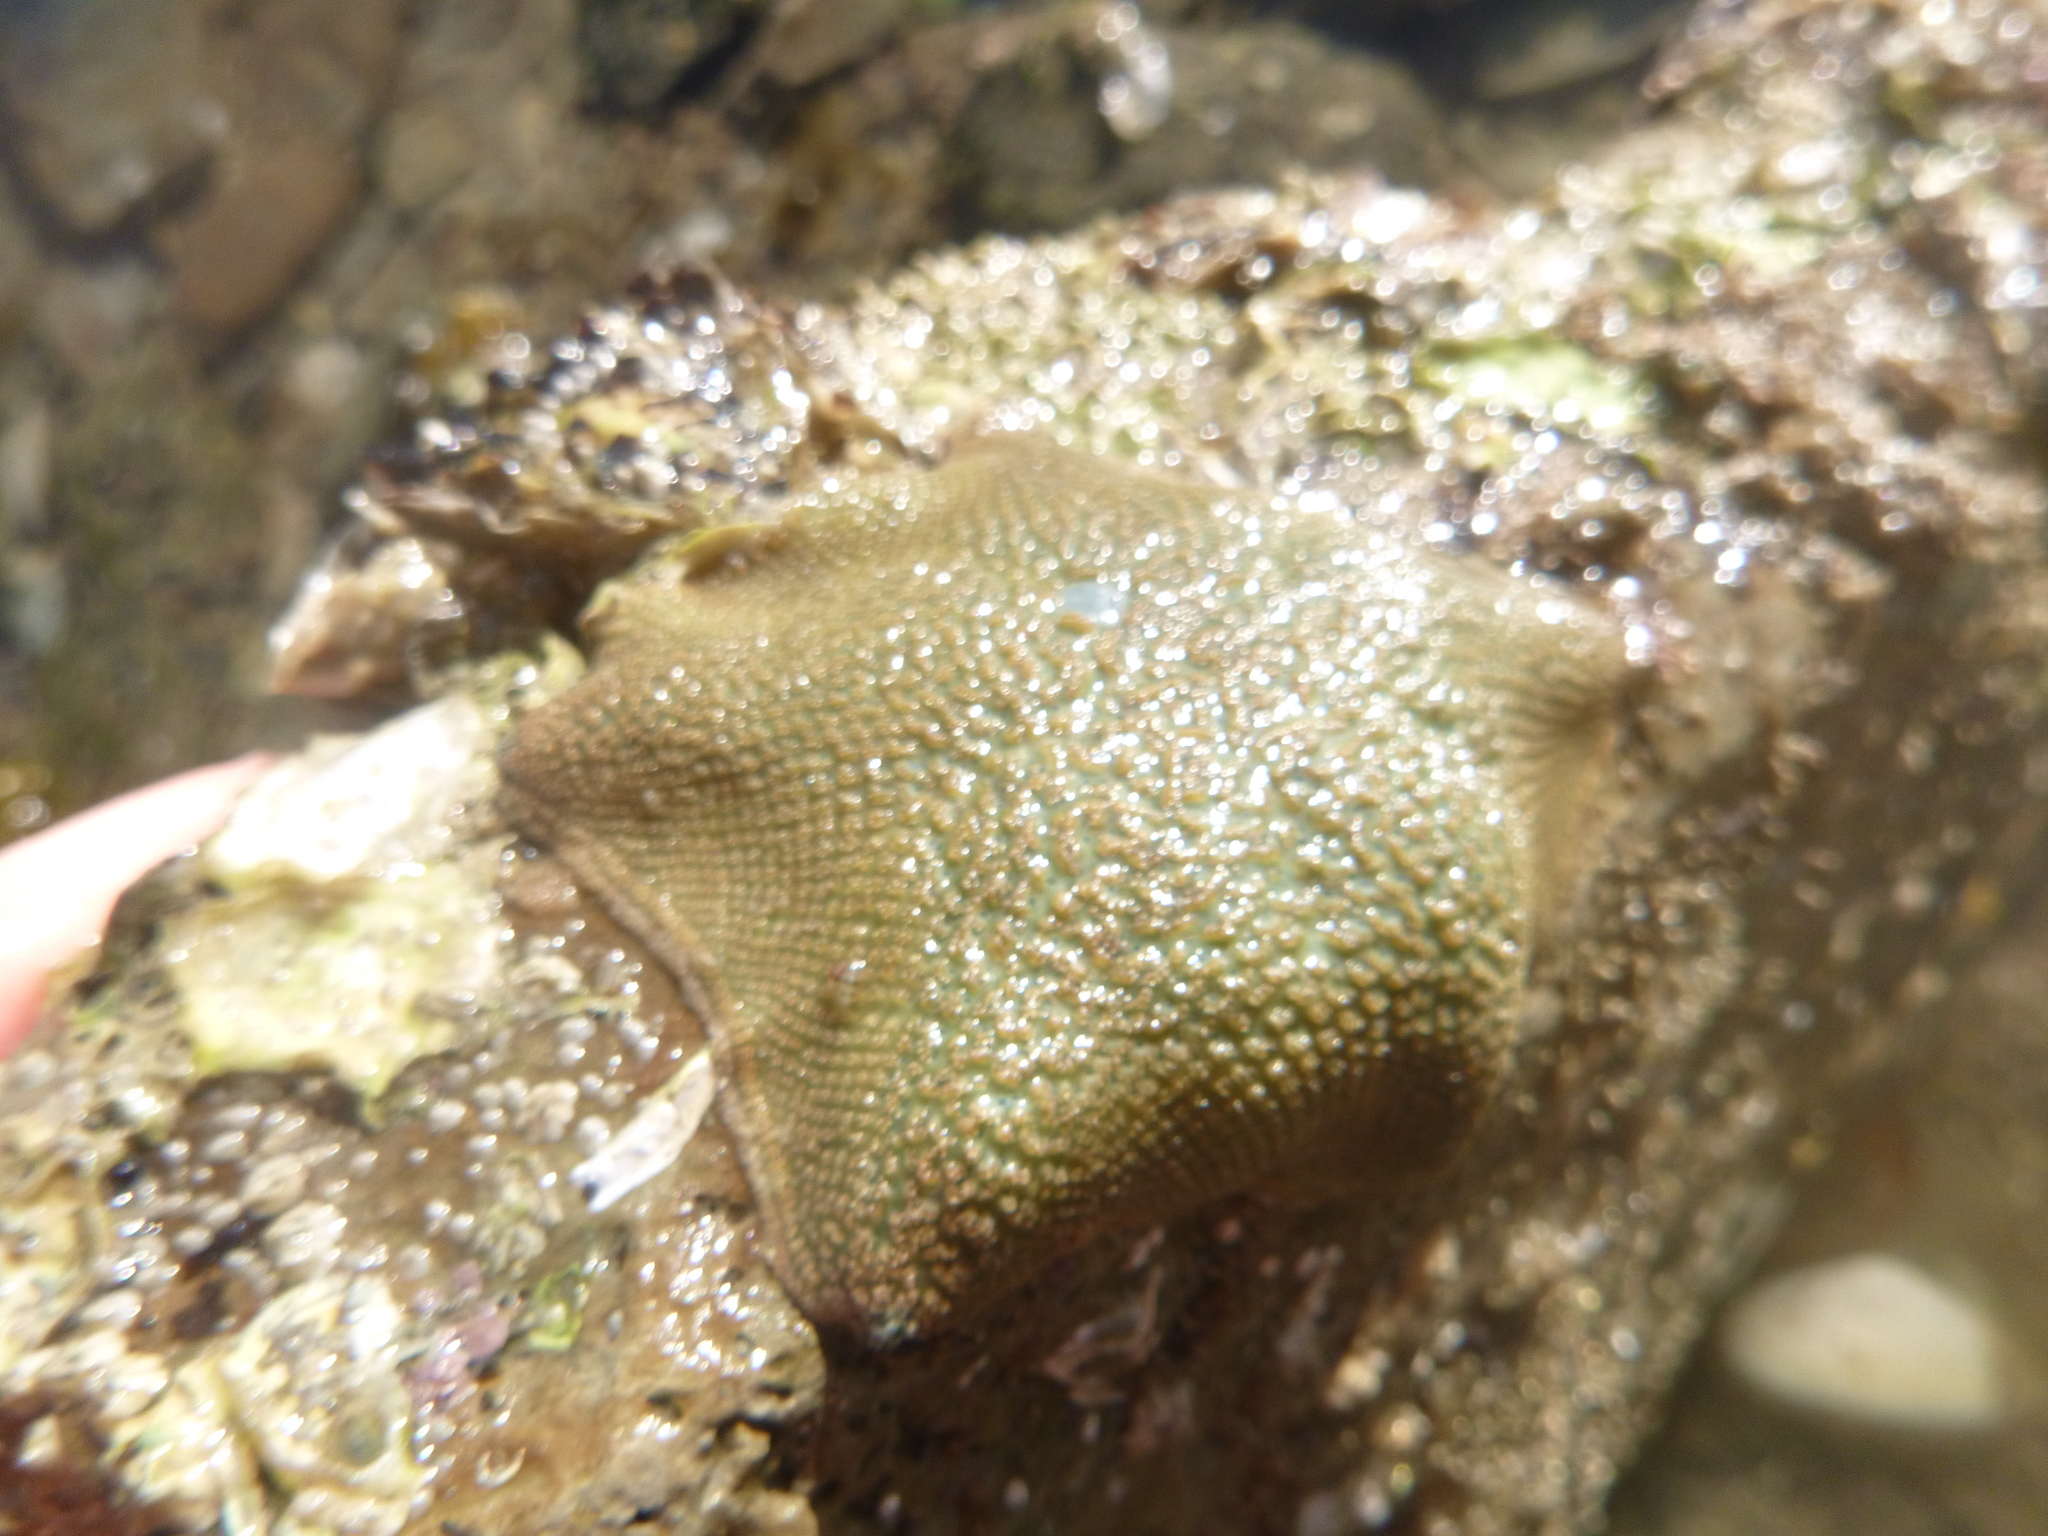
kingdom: Animalia
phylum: Echinodermata
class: Asteroidea
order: Valvatida
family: Asterinidae
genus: Patiriella
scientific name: Patiriella regularis
